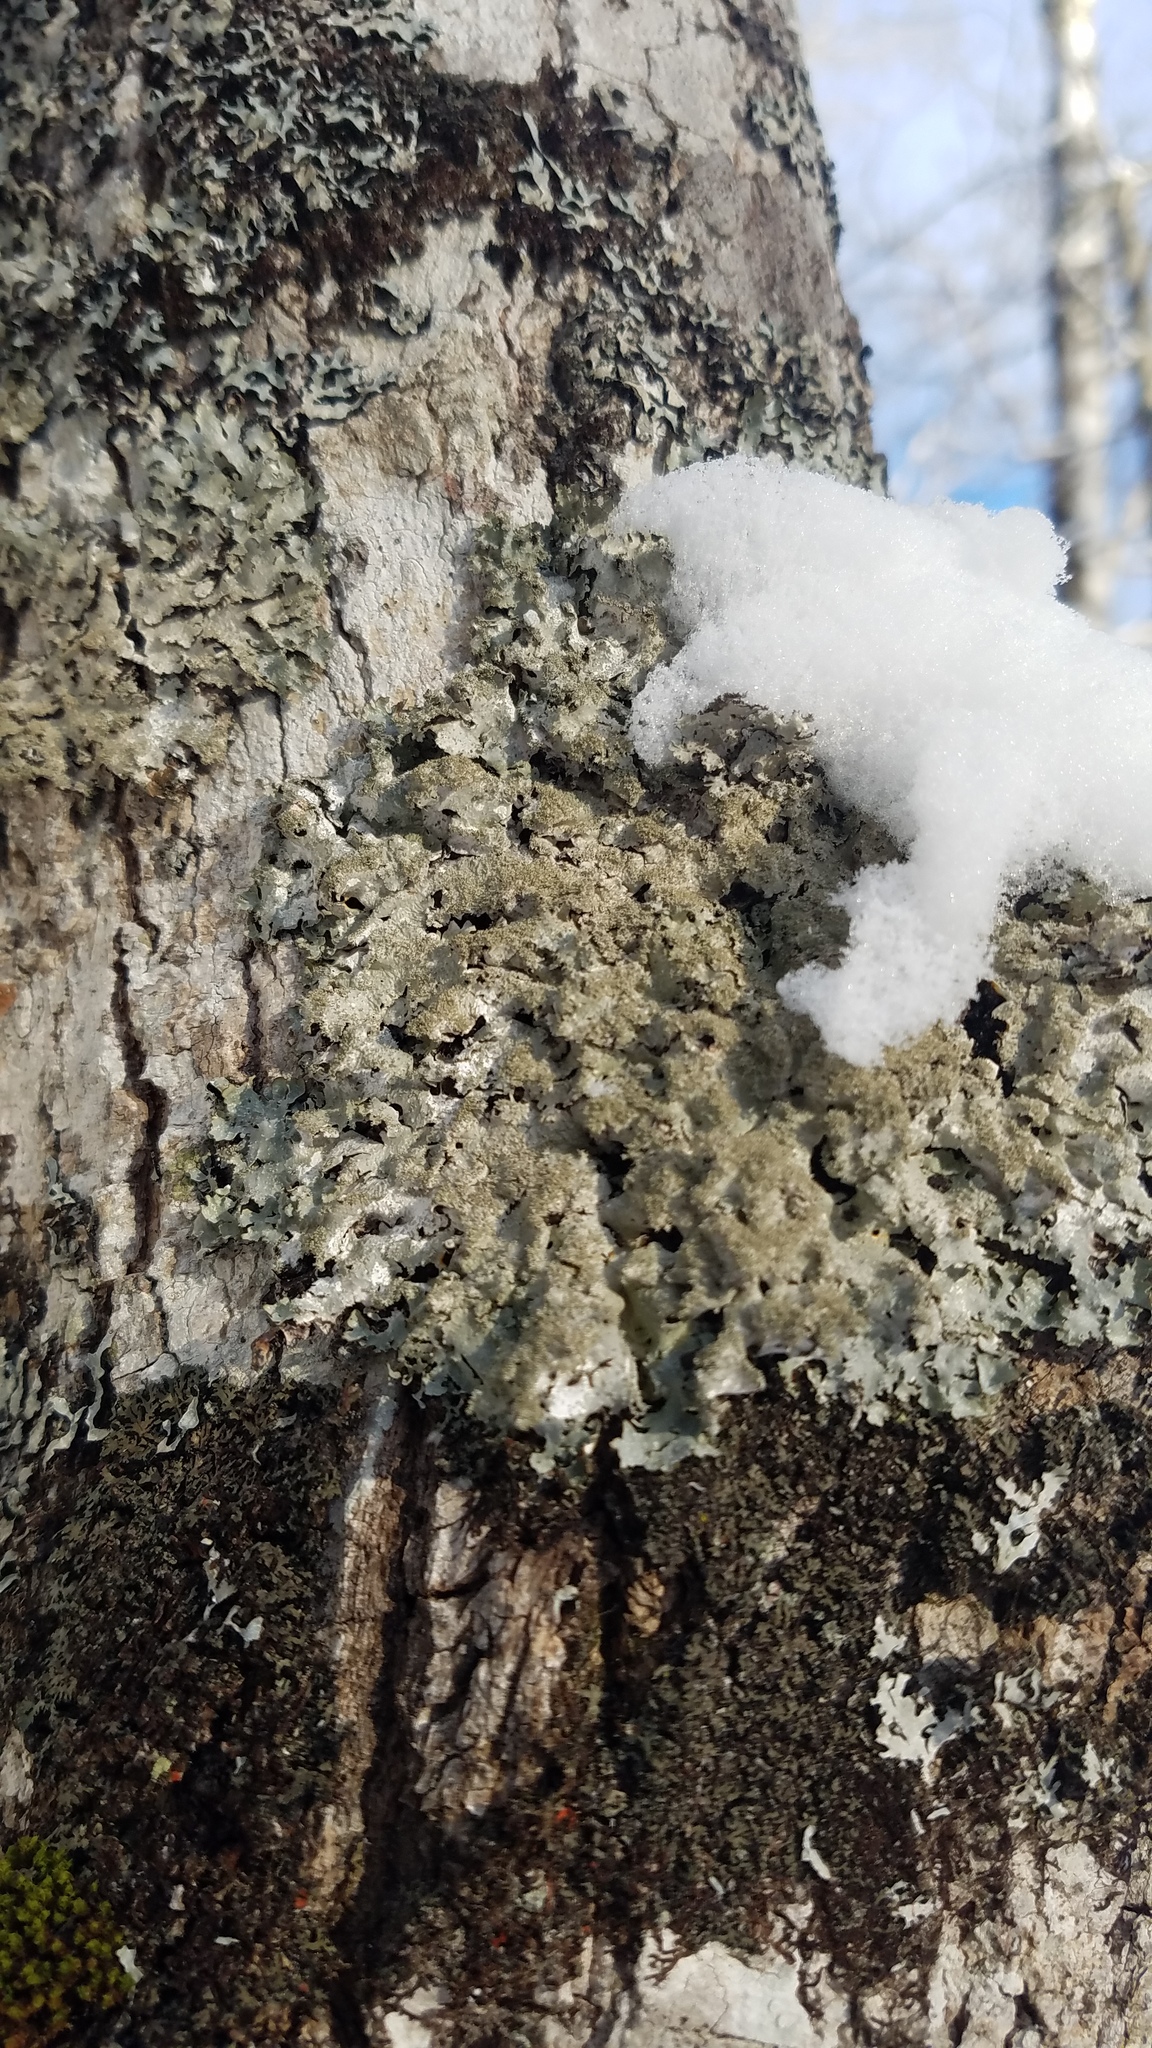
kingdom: Fungi
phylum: Ascomycota
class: Lecanoromycetes
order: Lecanorales
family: Parmeliaceae
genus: Punctelia
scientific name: Punctelia rudecta
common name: Rough speckled shield lichen
